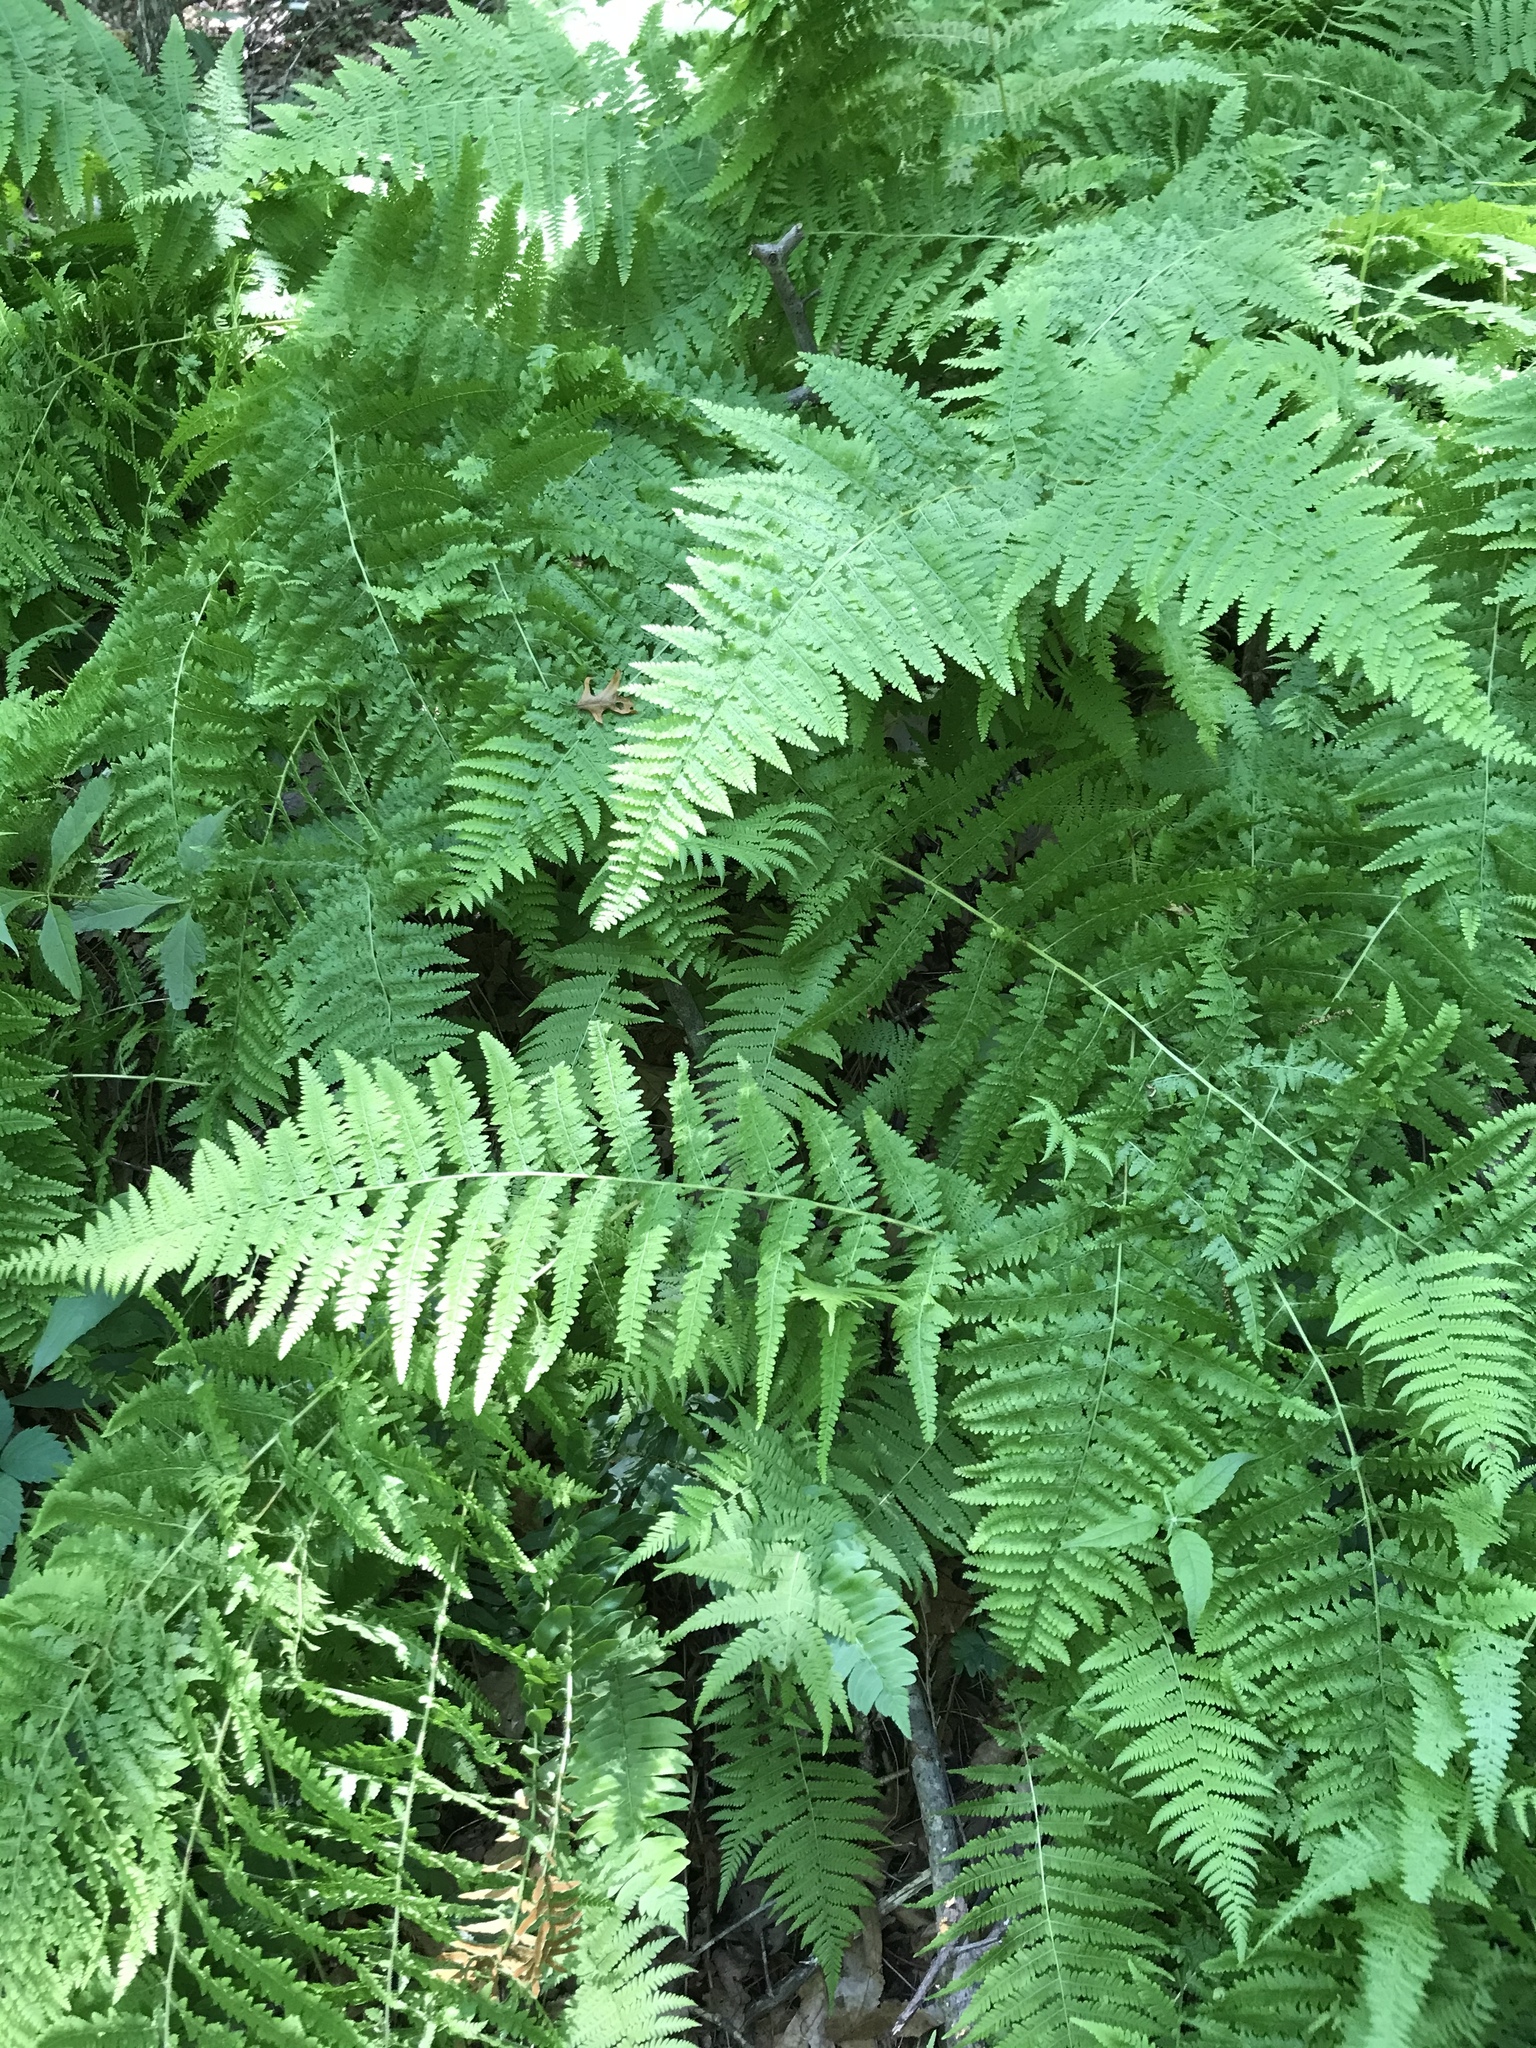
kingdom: Plantae
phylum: Tracheophyta
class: Polypodiopsida
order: Polypodiales
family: Dennstaedtiaceae
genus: Sitobolium
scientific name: Sitobolium punctilobum
